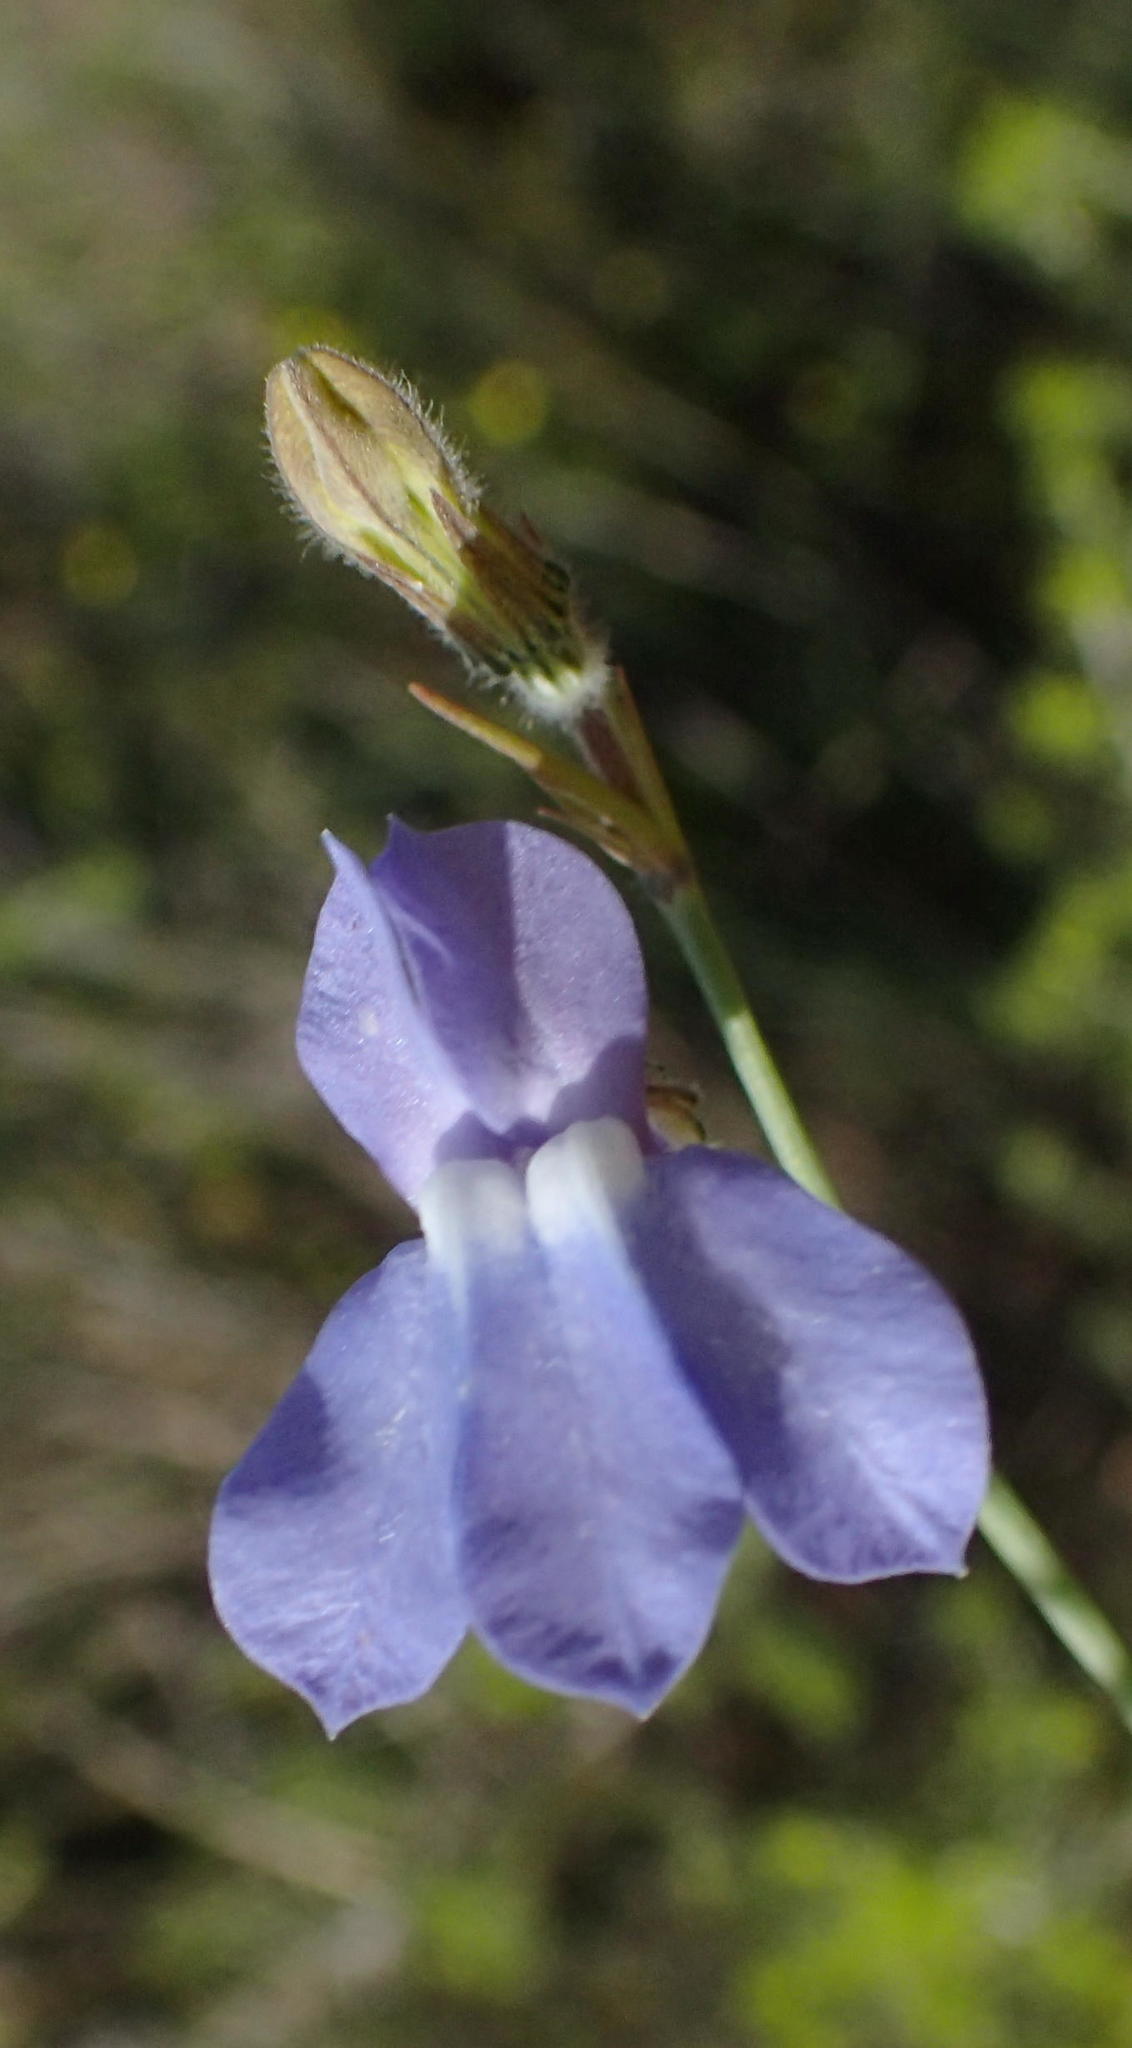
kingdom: Plantae
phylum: Tracheophyta
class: Magnoliopsida
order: Asterales
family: Campanulaceae
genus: Lobelia
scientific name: Lobelia linearis
